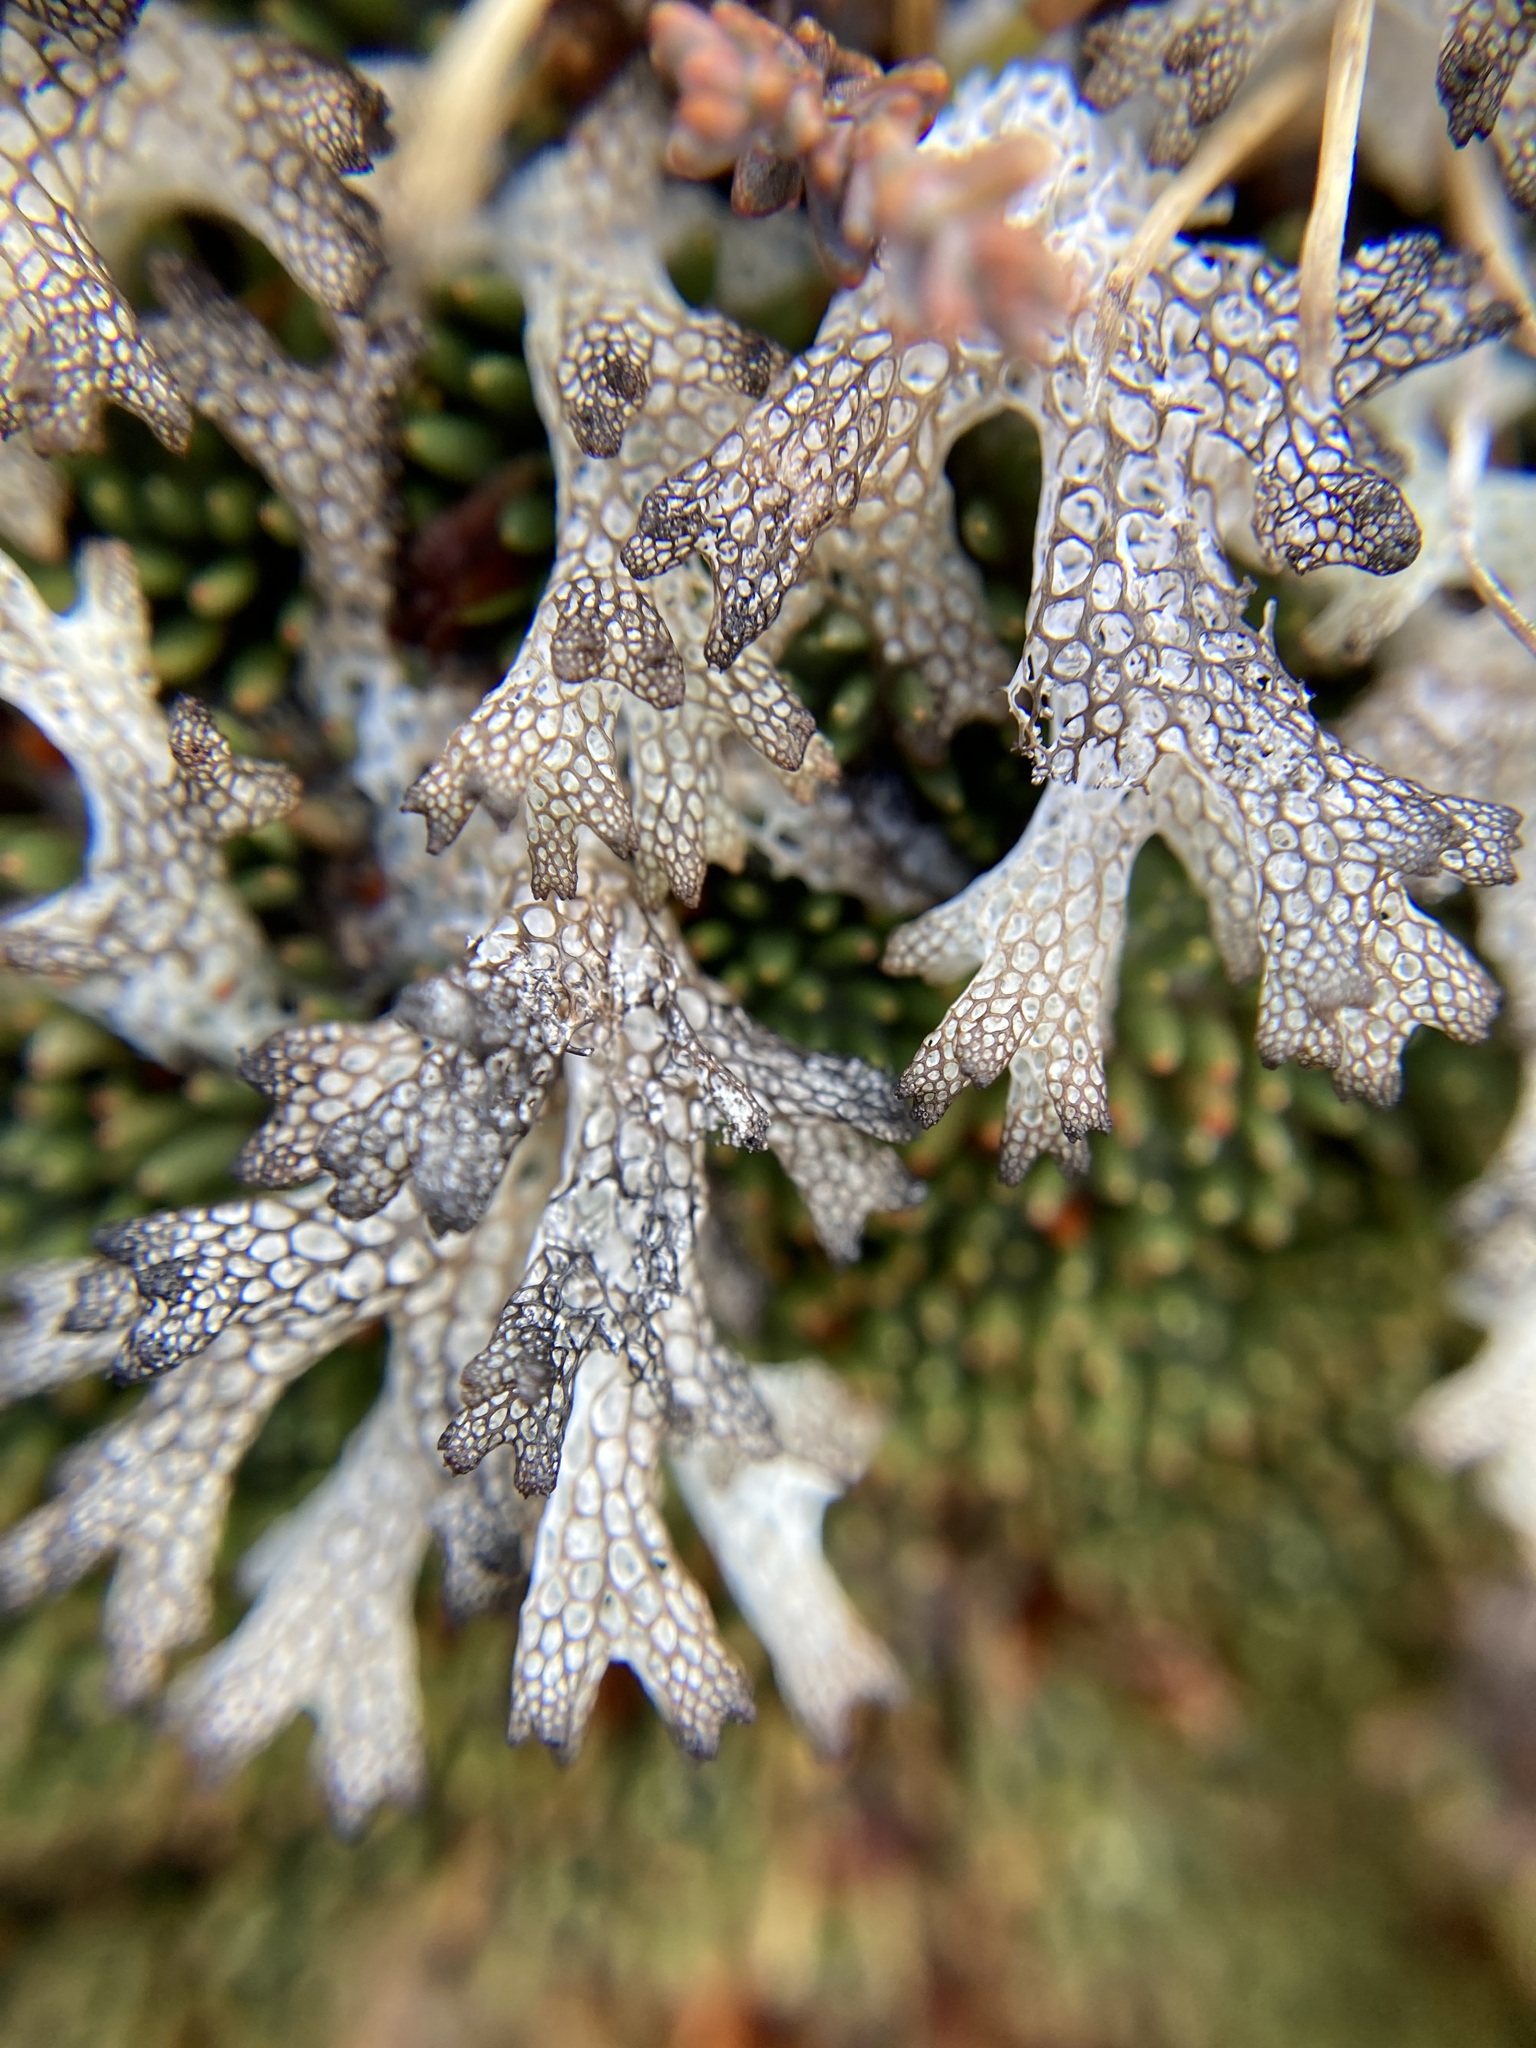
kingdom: Fungi
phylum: Ascomycota
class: Lecanoromycetes
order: Lecanorales
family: Cladoniaceae
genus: Pulchrocladia
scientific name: Pulchrocladia retipora
